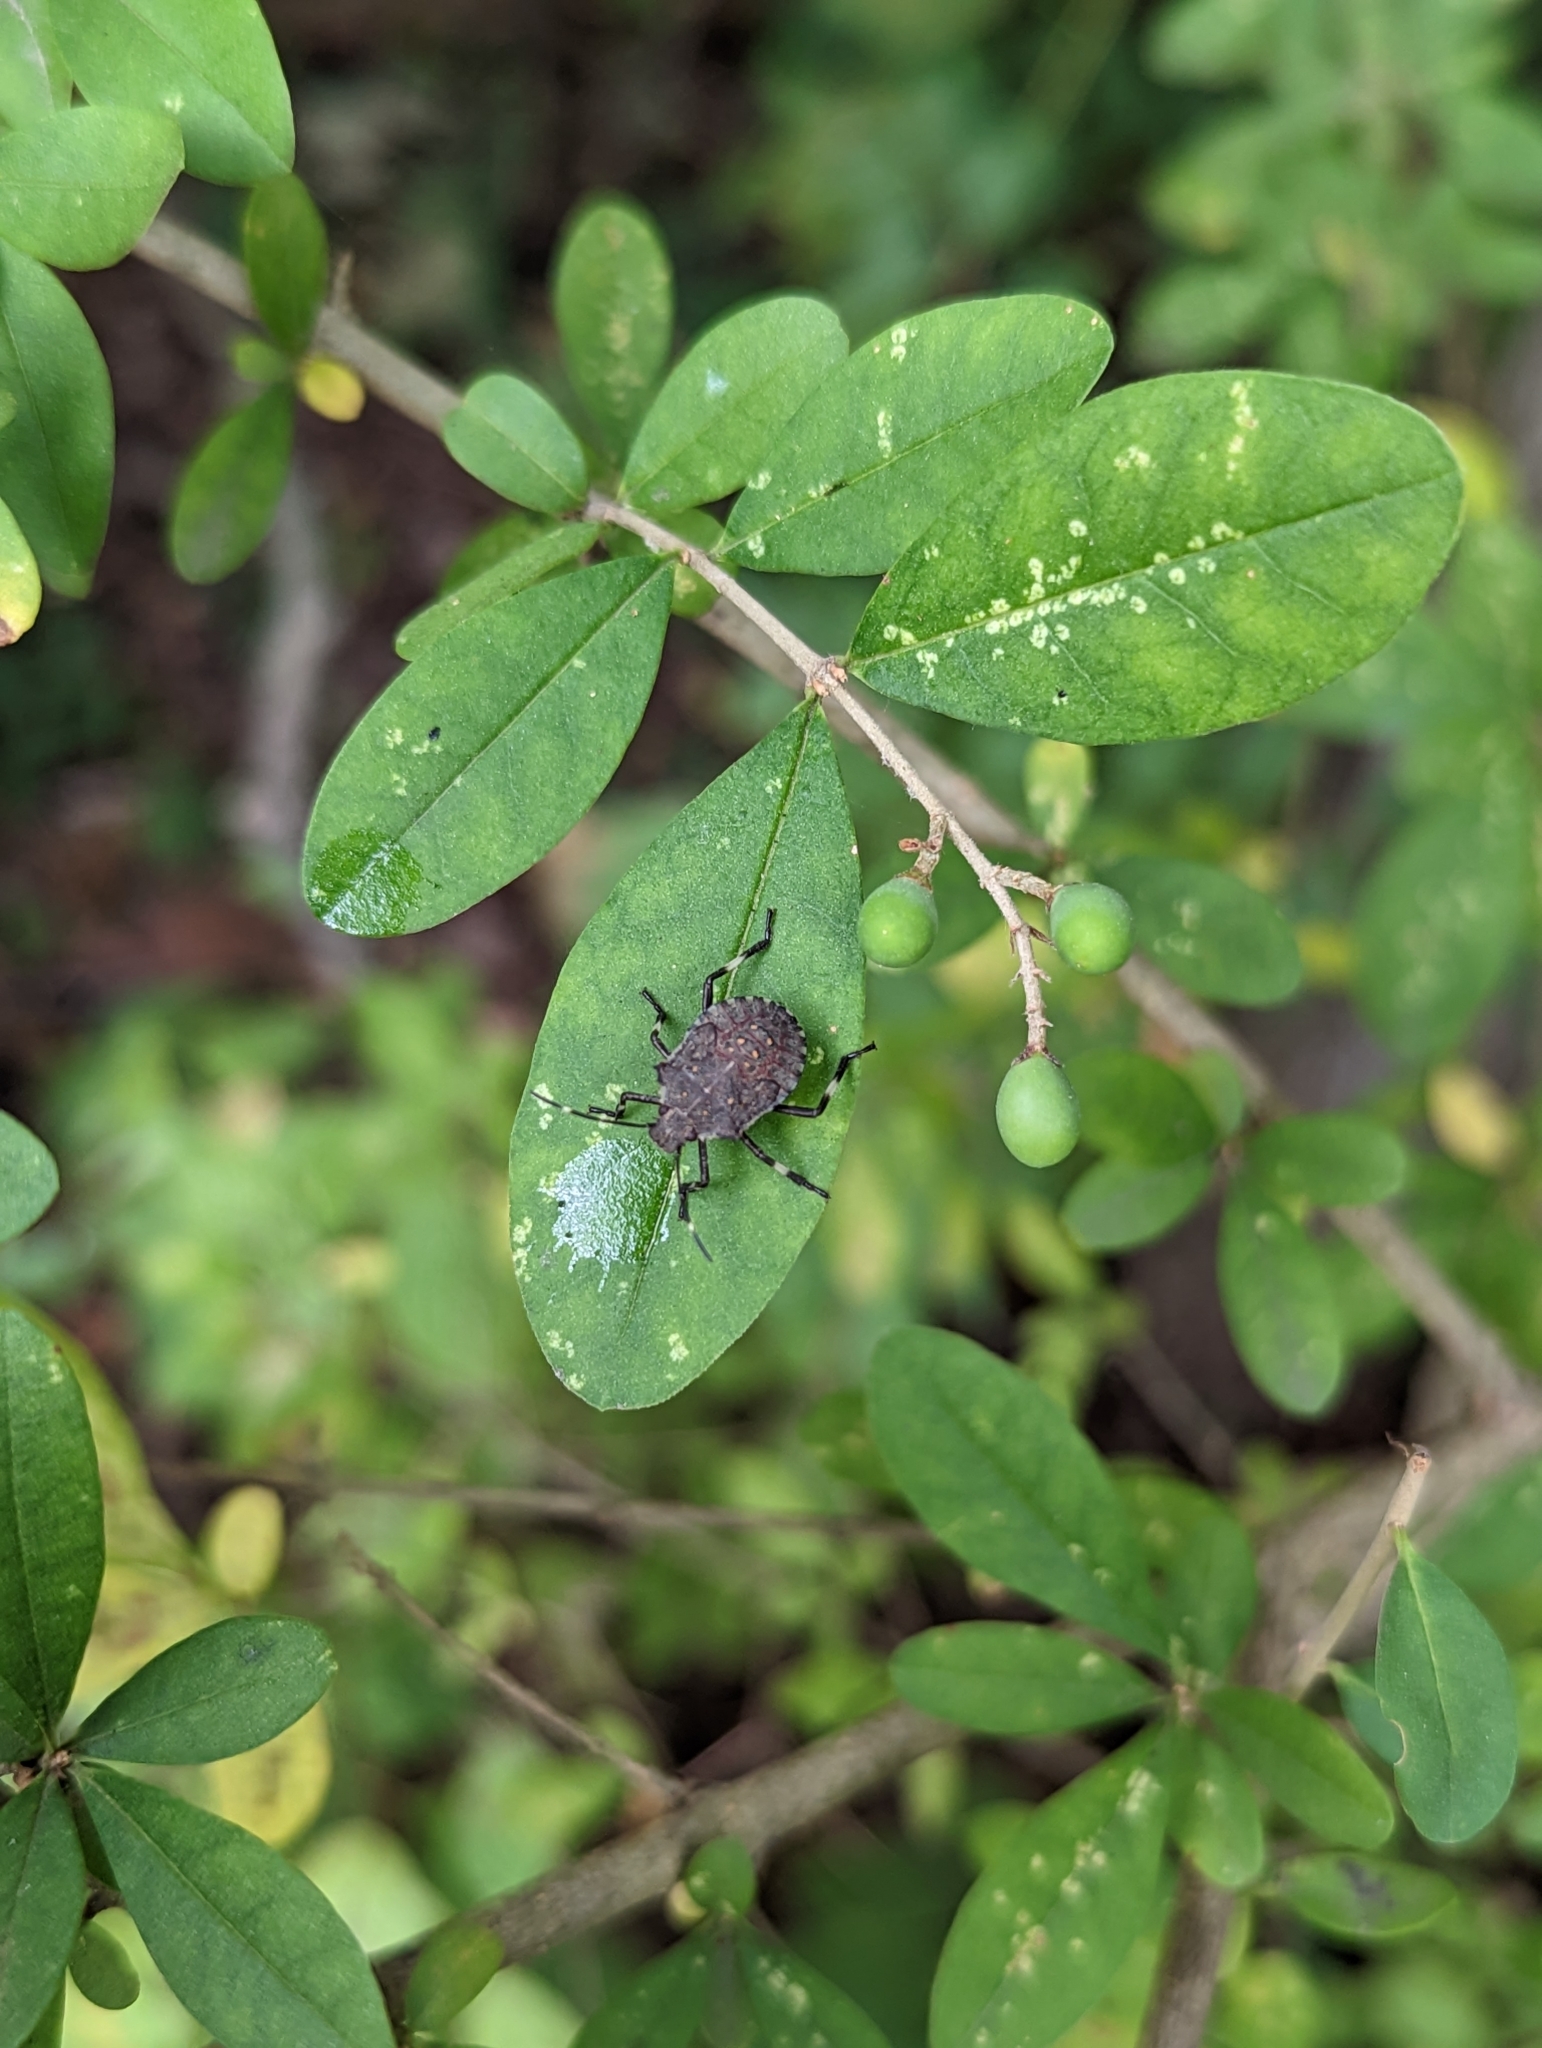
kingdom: Animalia
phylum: Arthropoda
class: Insecta
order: Hemiptera
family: Pentatomidae
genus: Halyomorpha
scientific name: Halyomorpha halys
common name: Brown marmorated stink bug
